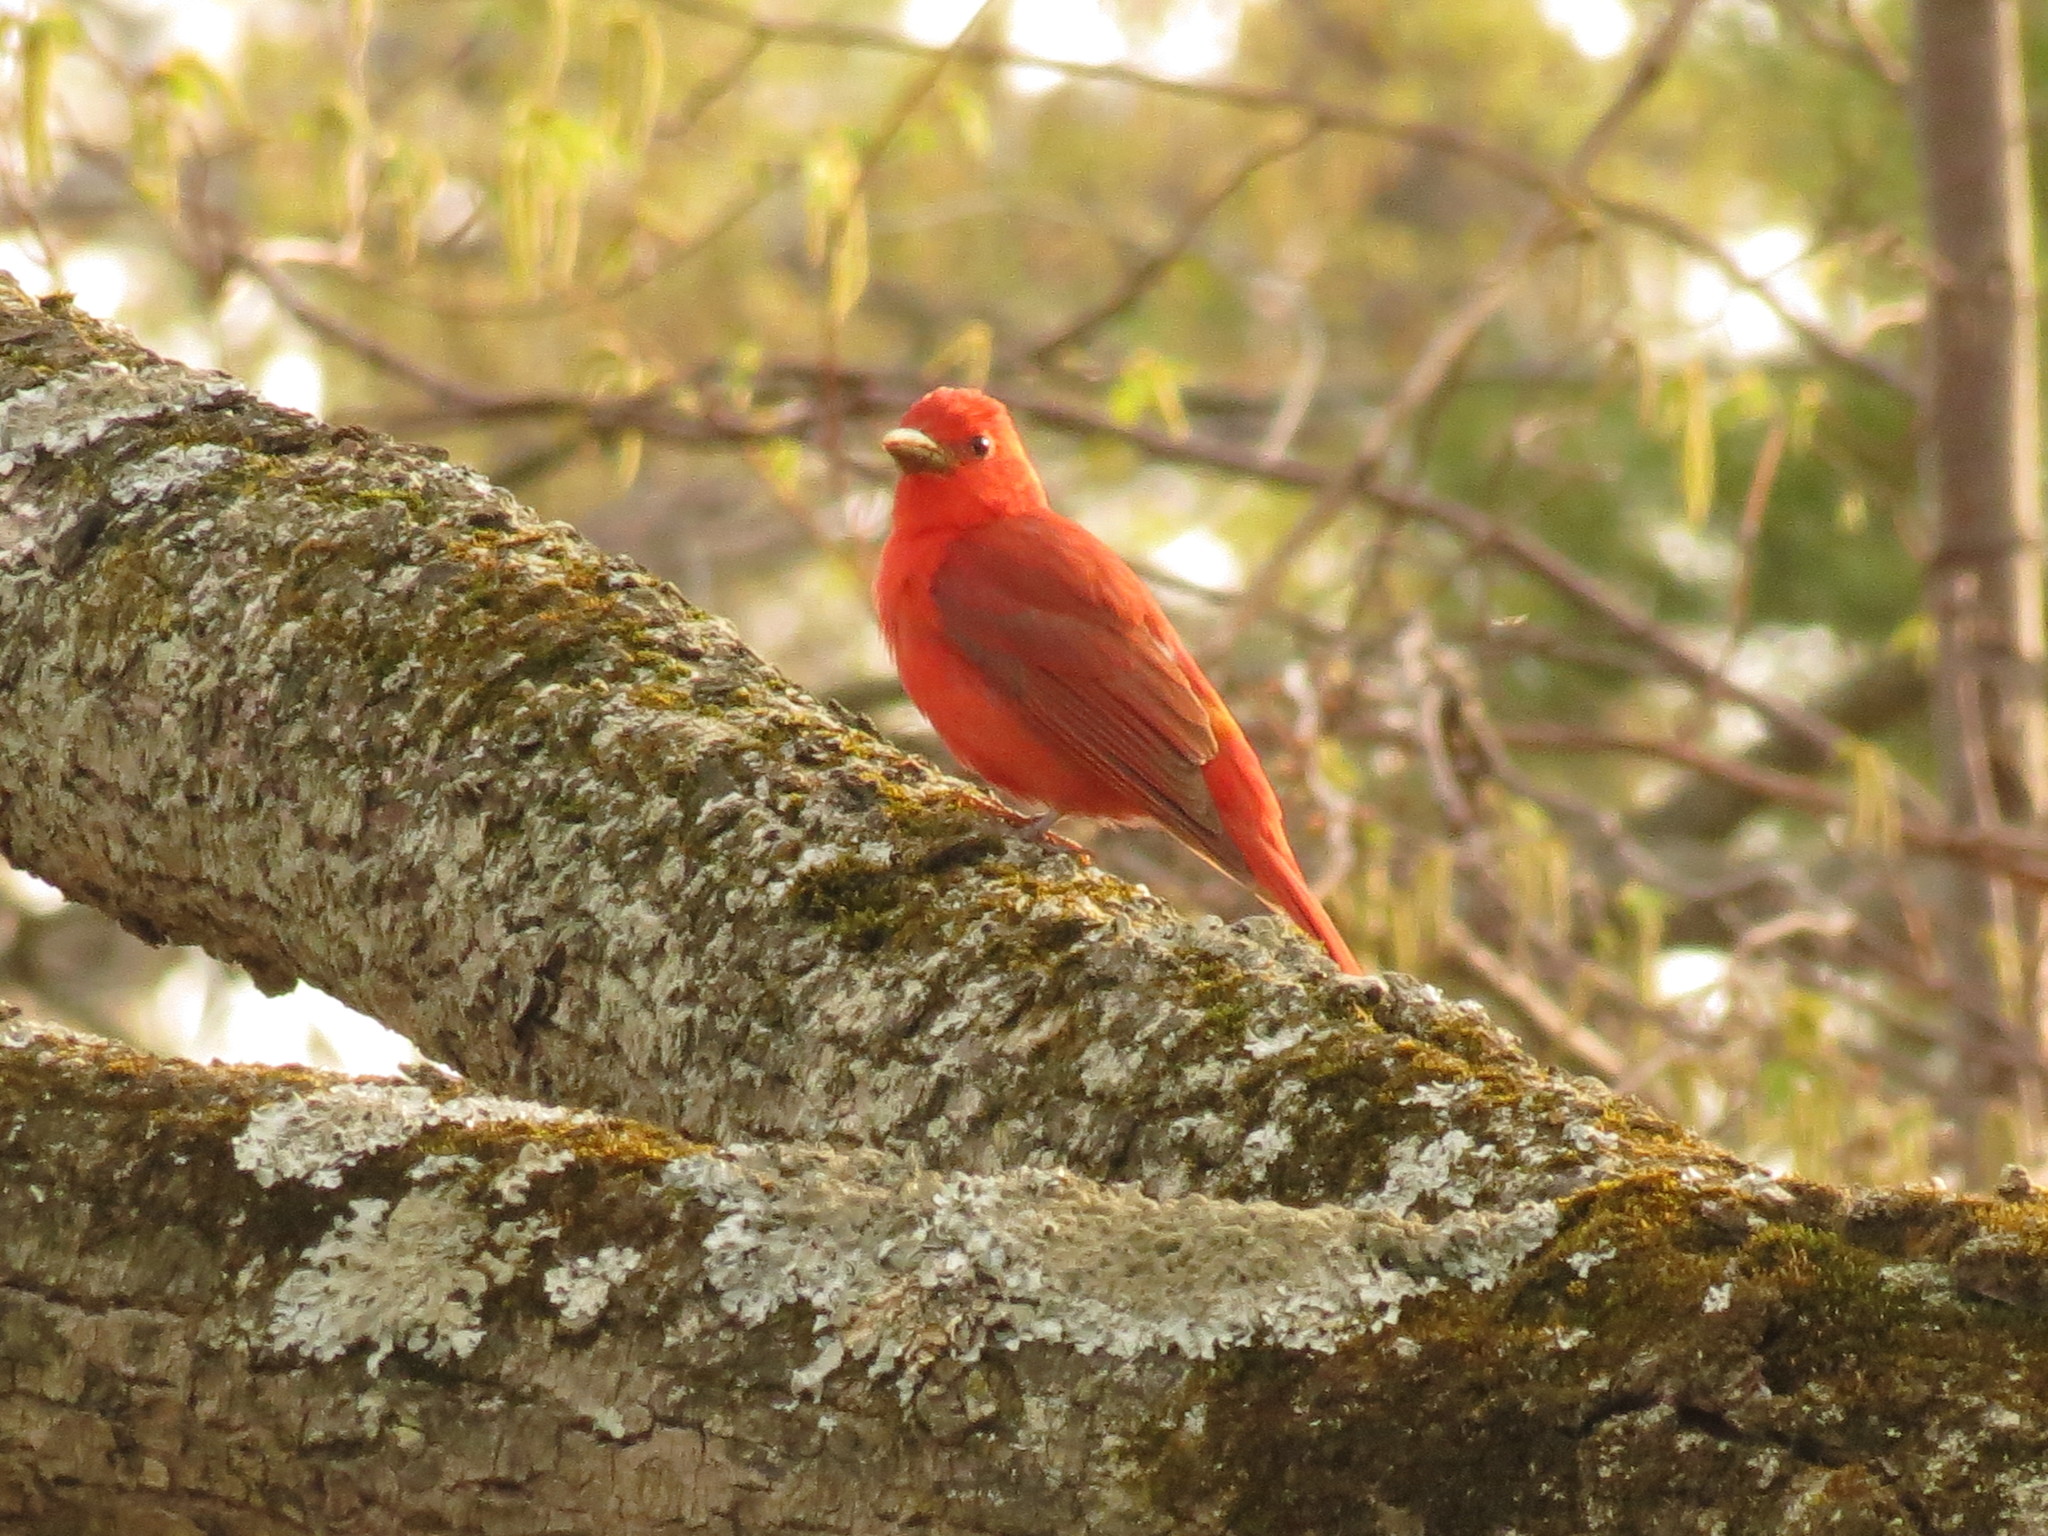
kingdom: Animalia
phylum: Chordata
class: Aves
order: Passeriformes
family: Cardinalidae
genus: Piranga
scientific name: Piranga rubra
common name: Summer tanager
